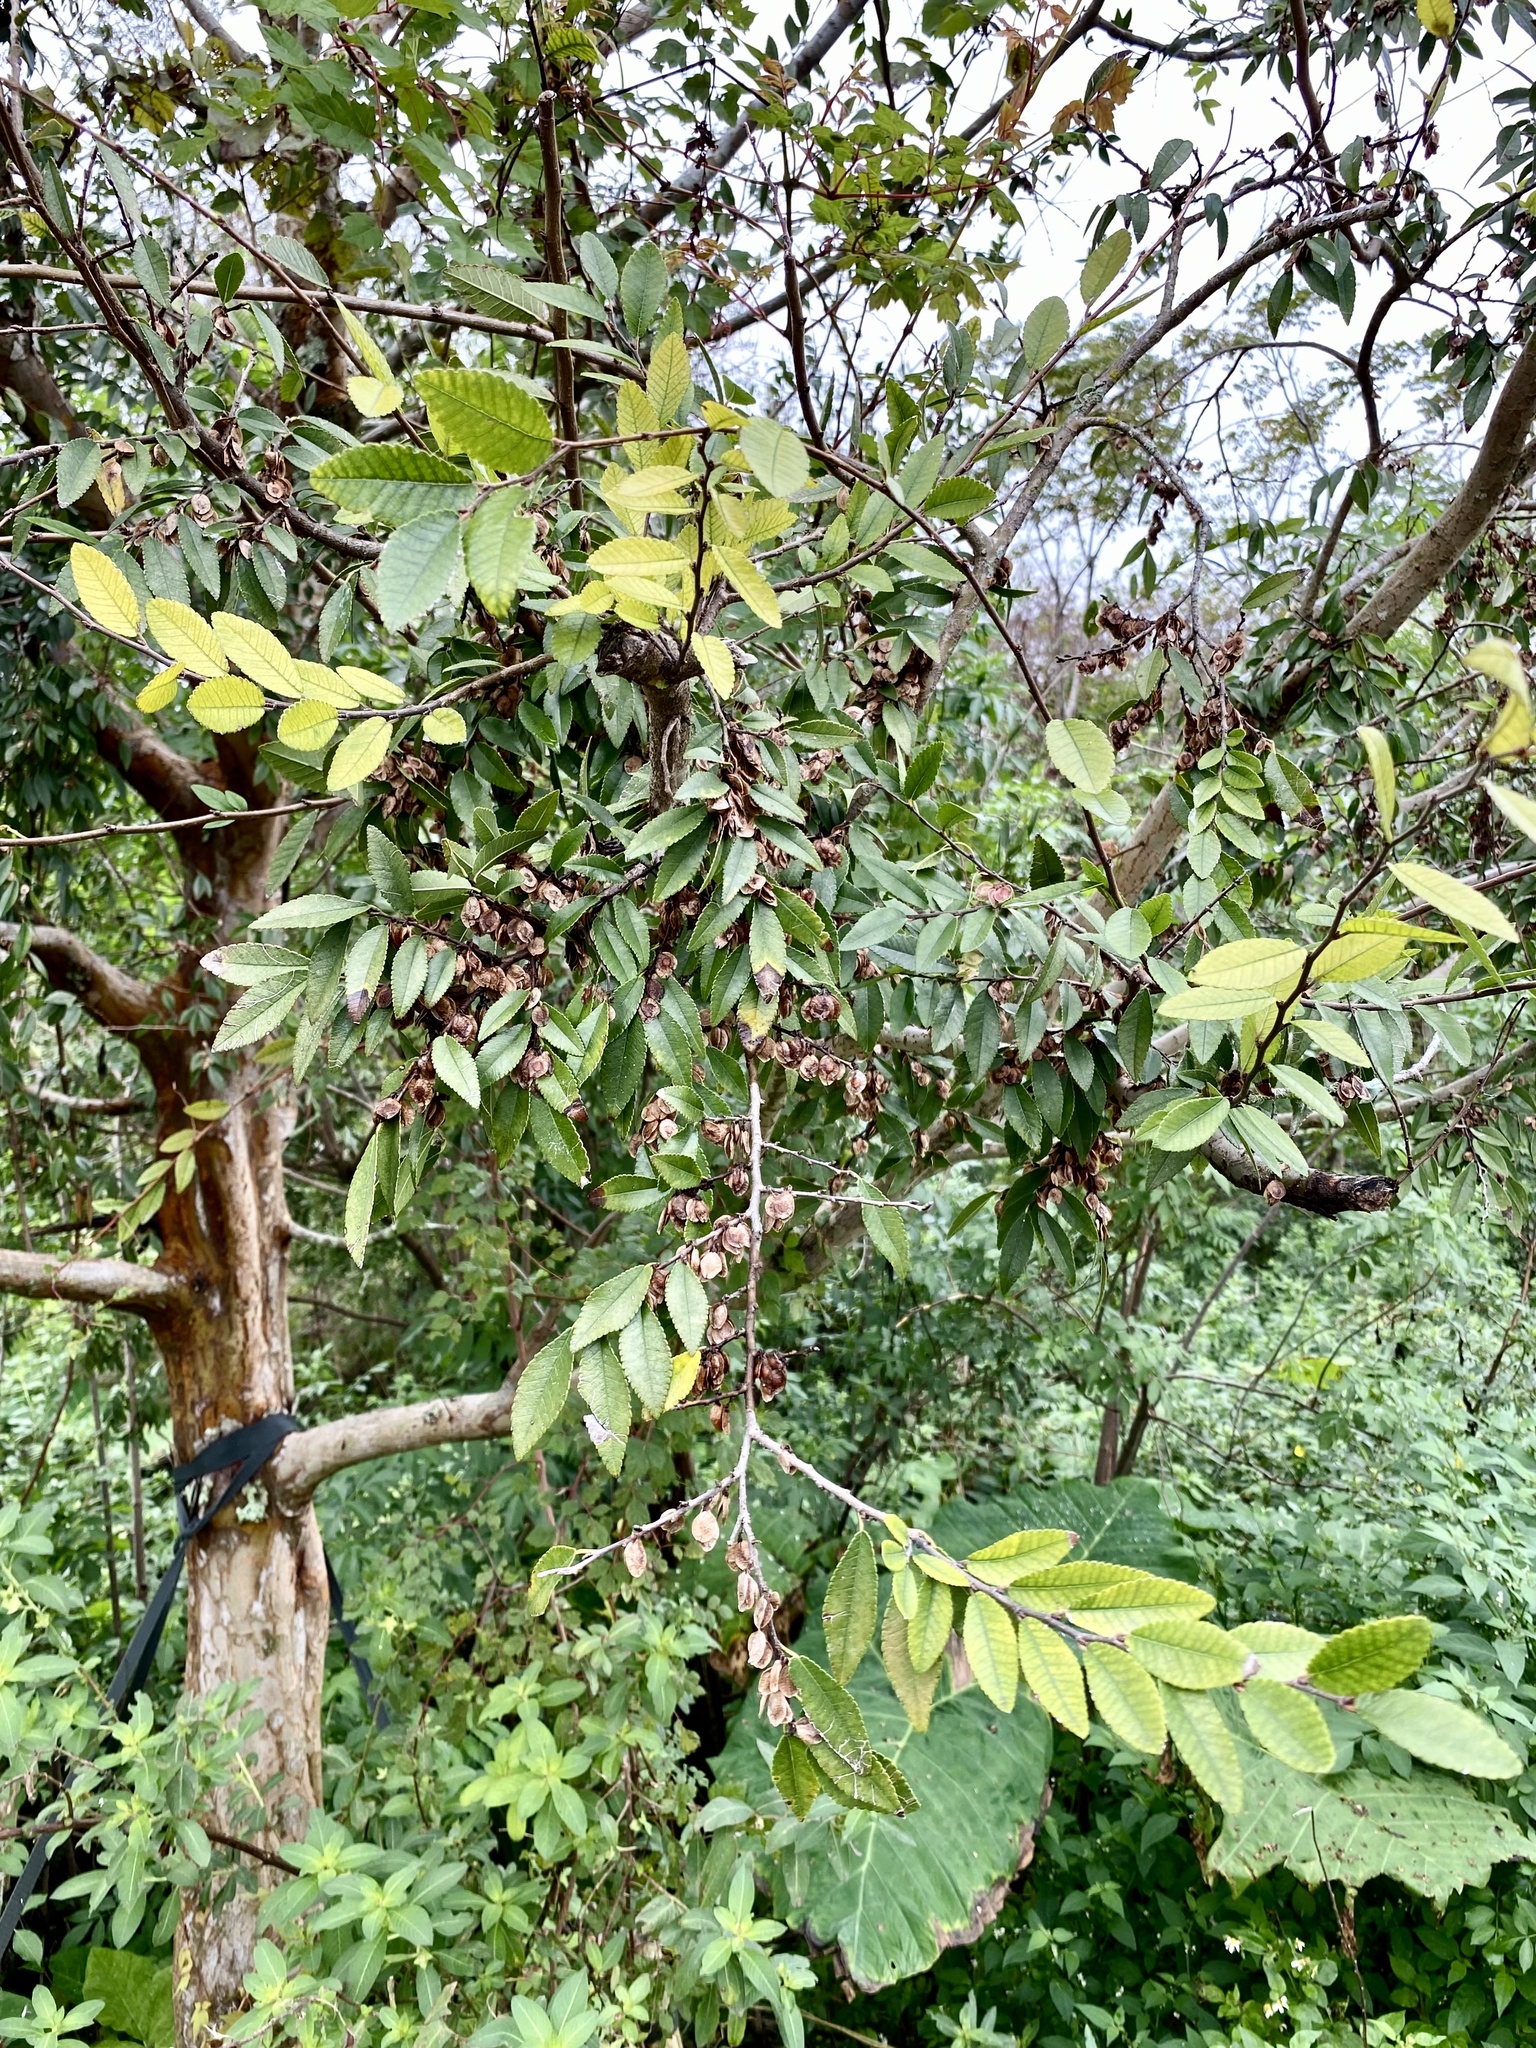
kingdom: Plantae
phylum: Tracheophyta
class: Magnoliopsida
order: Rosales
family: Ulmaceae
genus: Ulmus
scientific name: Ulmus parvifolia
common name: Chinese elm
